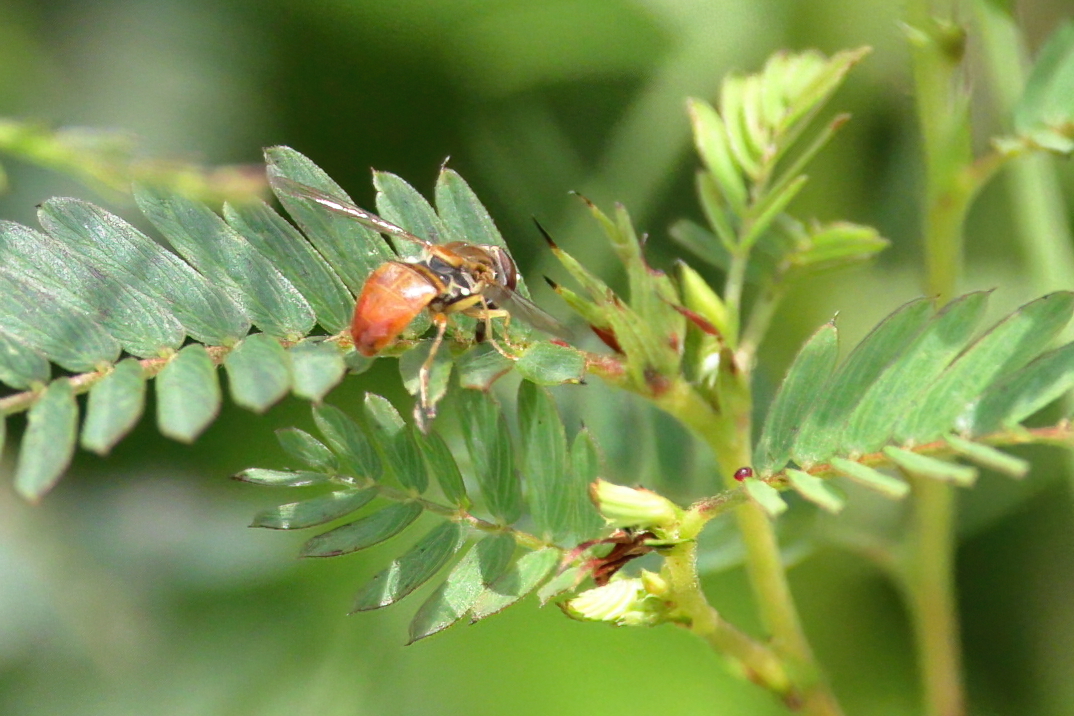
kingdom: Animalia
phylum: Arthropoda
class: Insecta
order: Diptera
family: Syrphidae
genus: Toxomerus
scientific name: Toxomerus marginatus
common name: Syrphid fly
